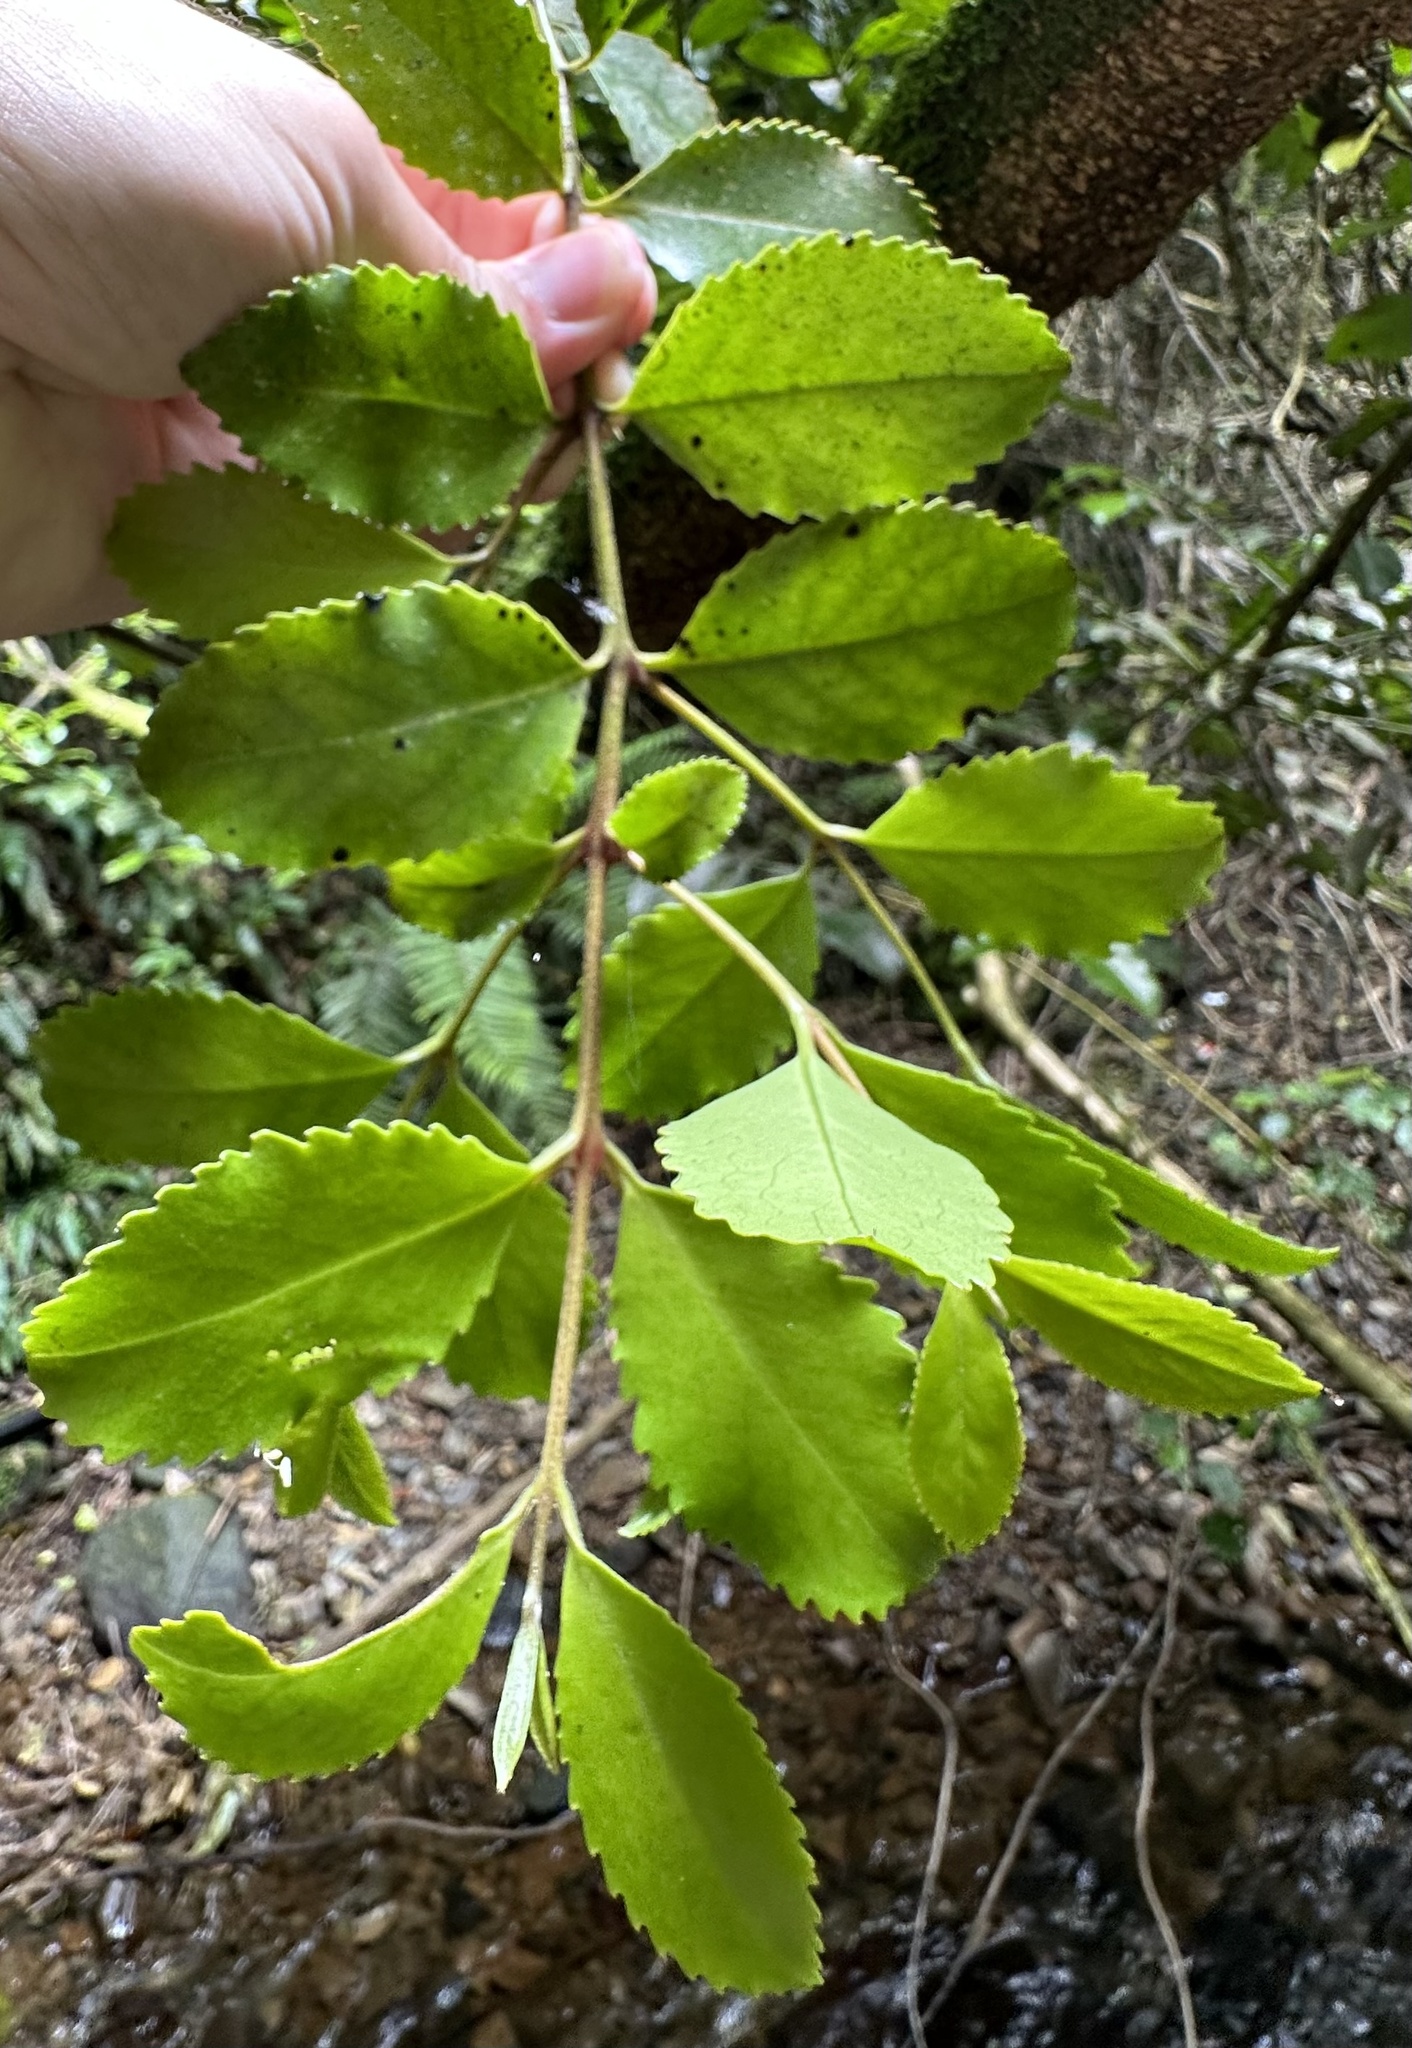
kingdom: Plantae
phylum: Tracheophyta
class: Magnoliopsida
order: Laurales
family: Atherospermataceae
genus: Laurelia
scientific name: Laurelia novae-zelandiae
